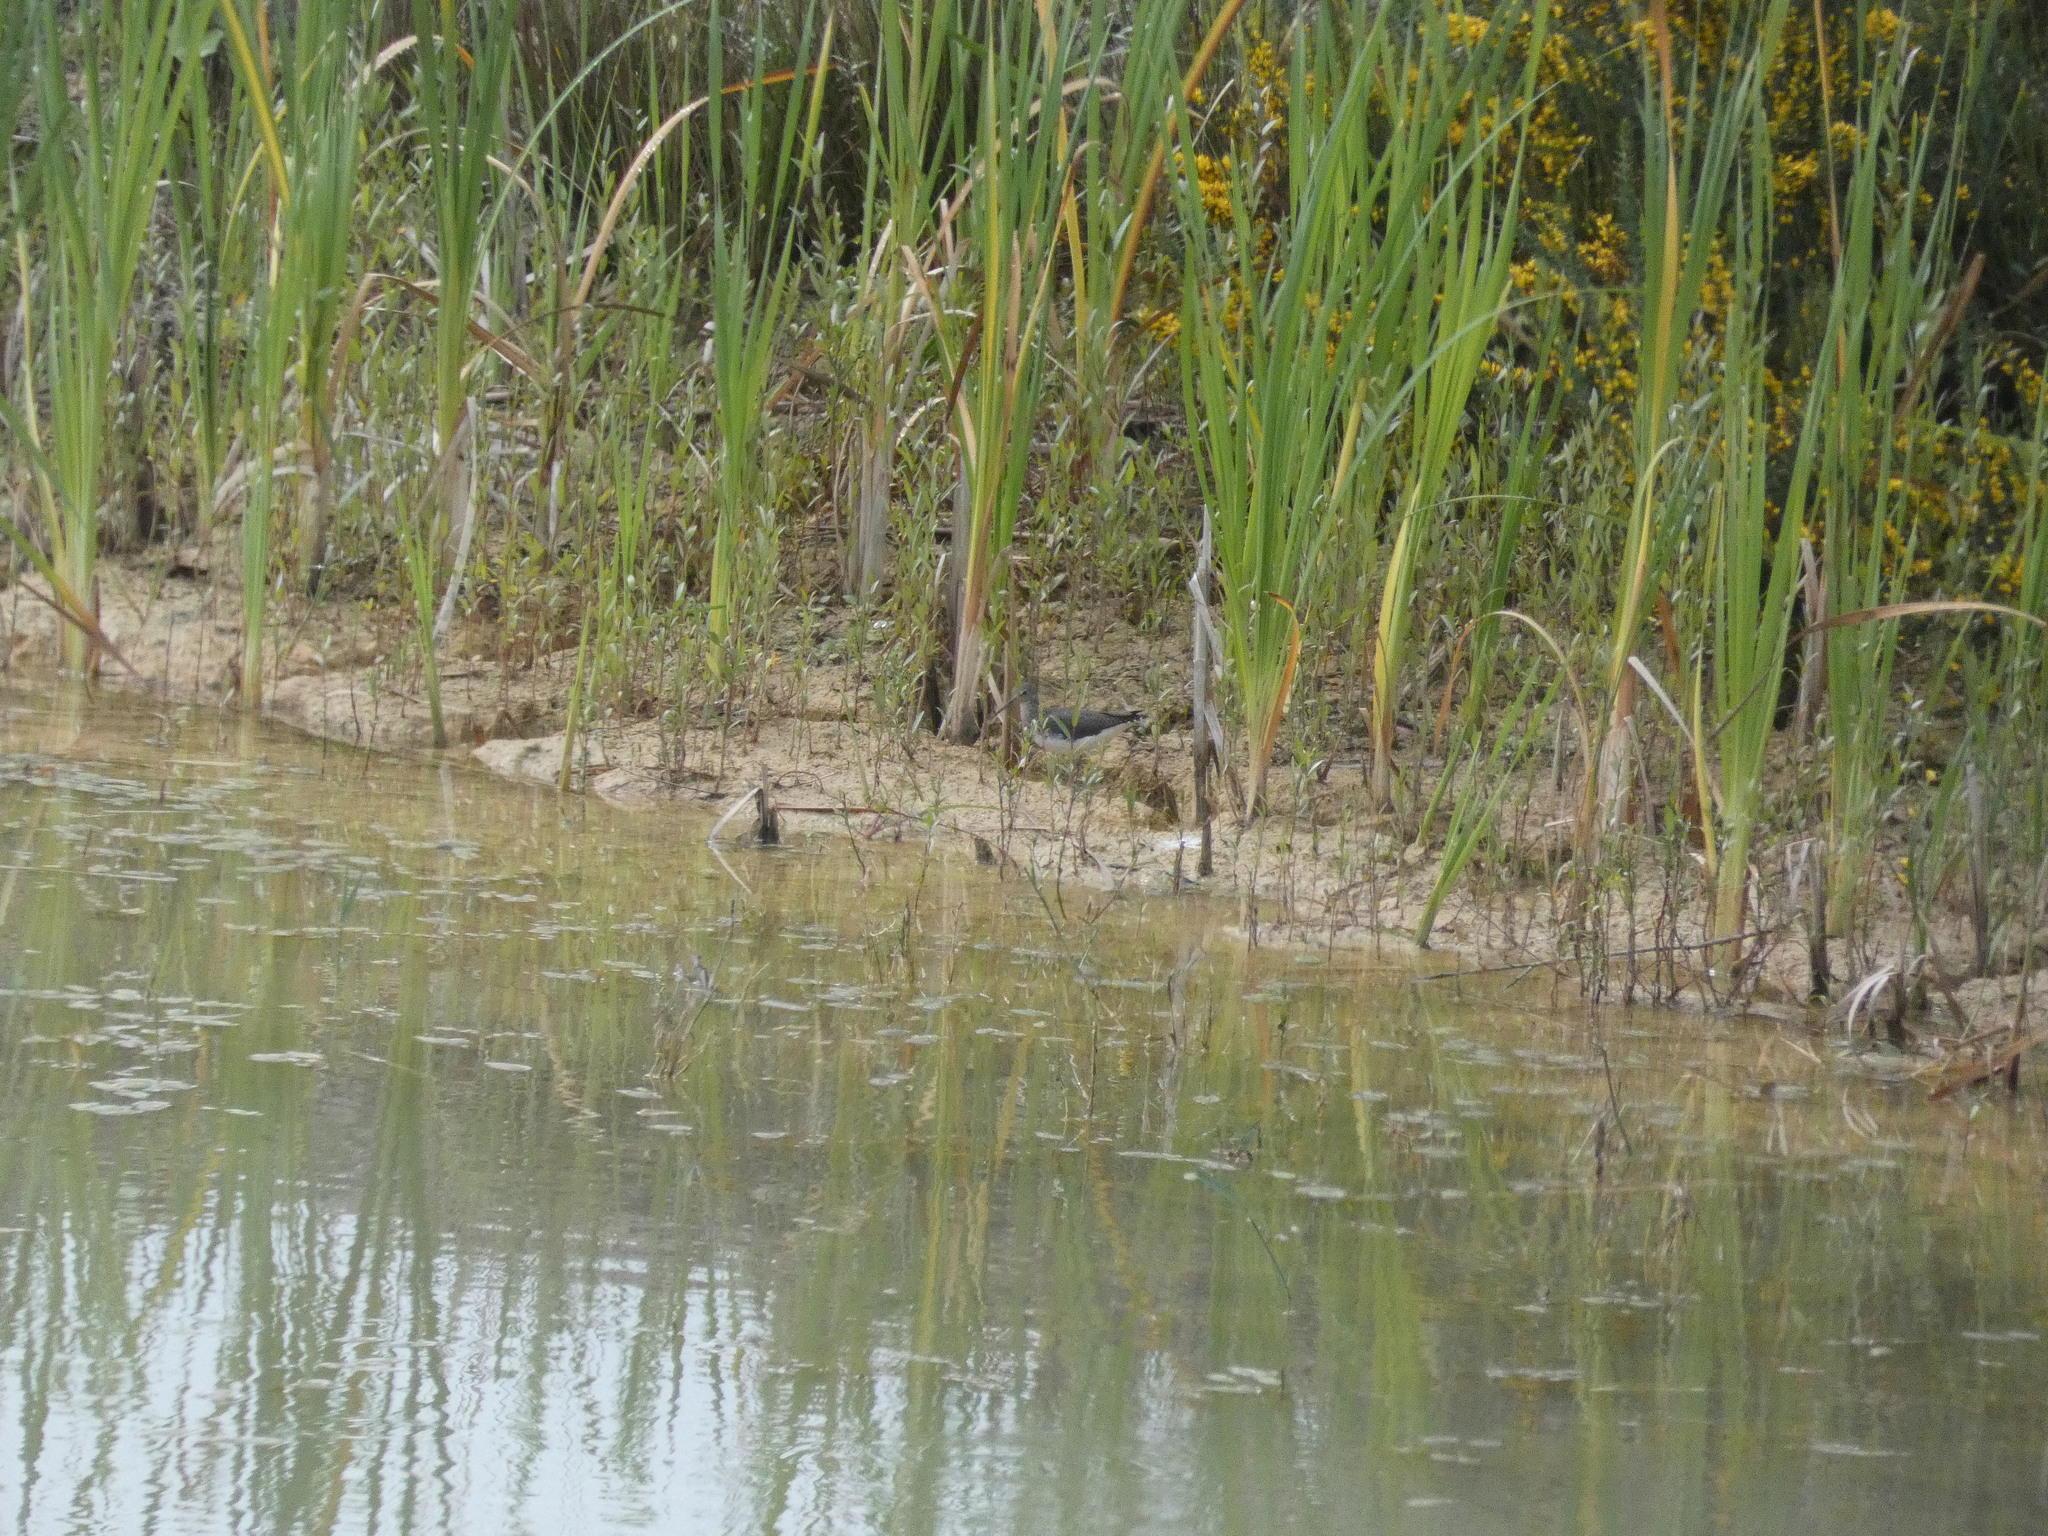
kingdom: Animalia
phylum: Chordata
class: Aves
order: Charadriiformes
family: Scolopacidae
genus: Tringa
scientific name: Tringa ochropus
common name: Green sandpiper
